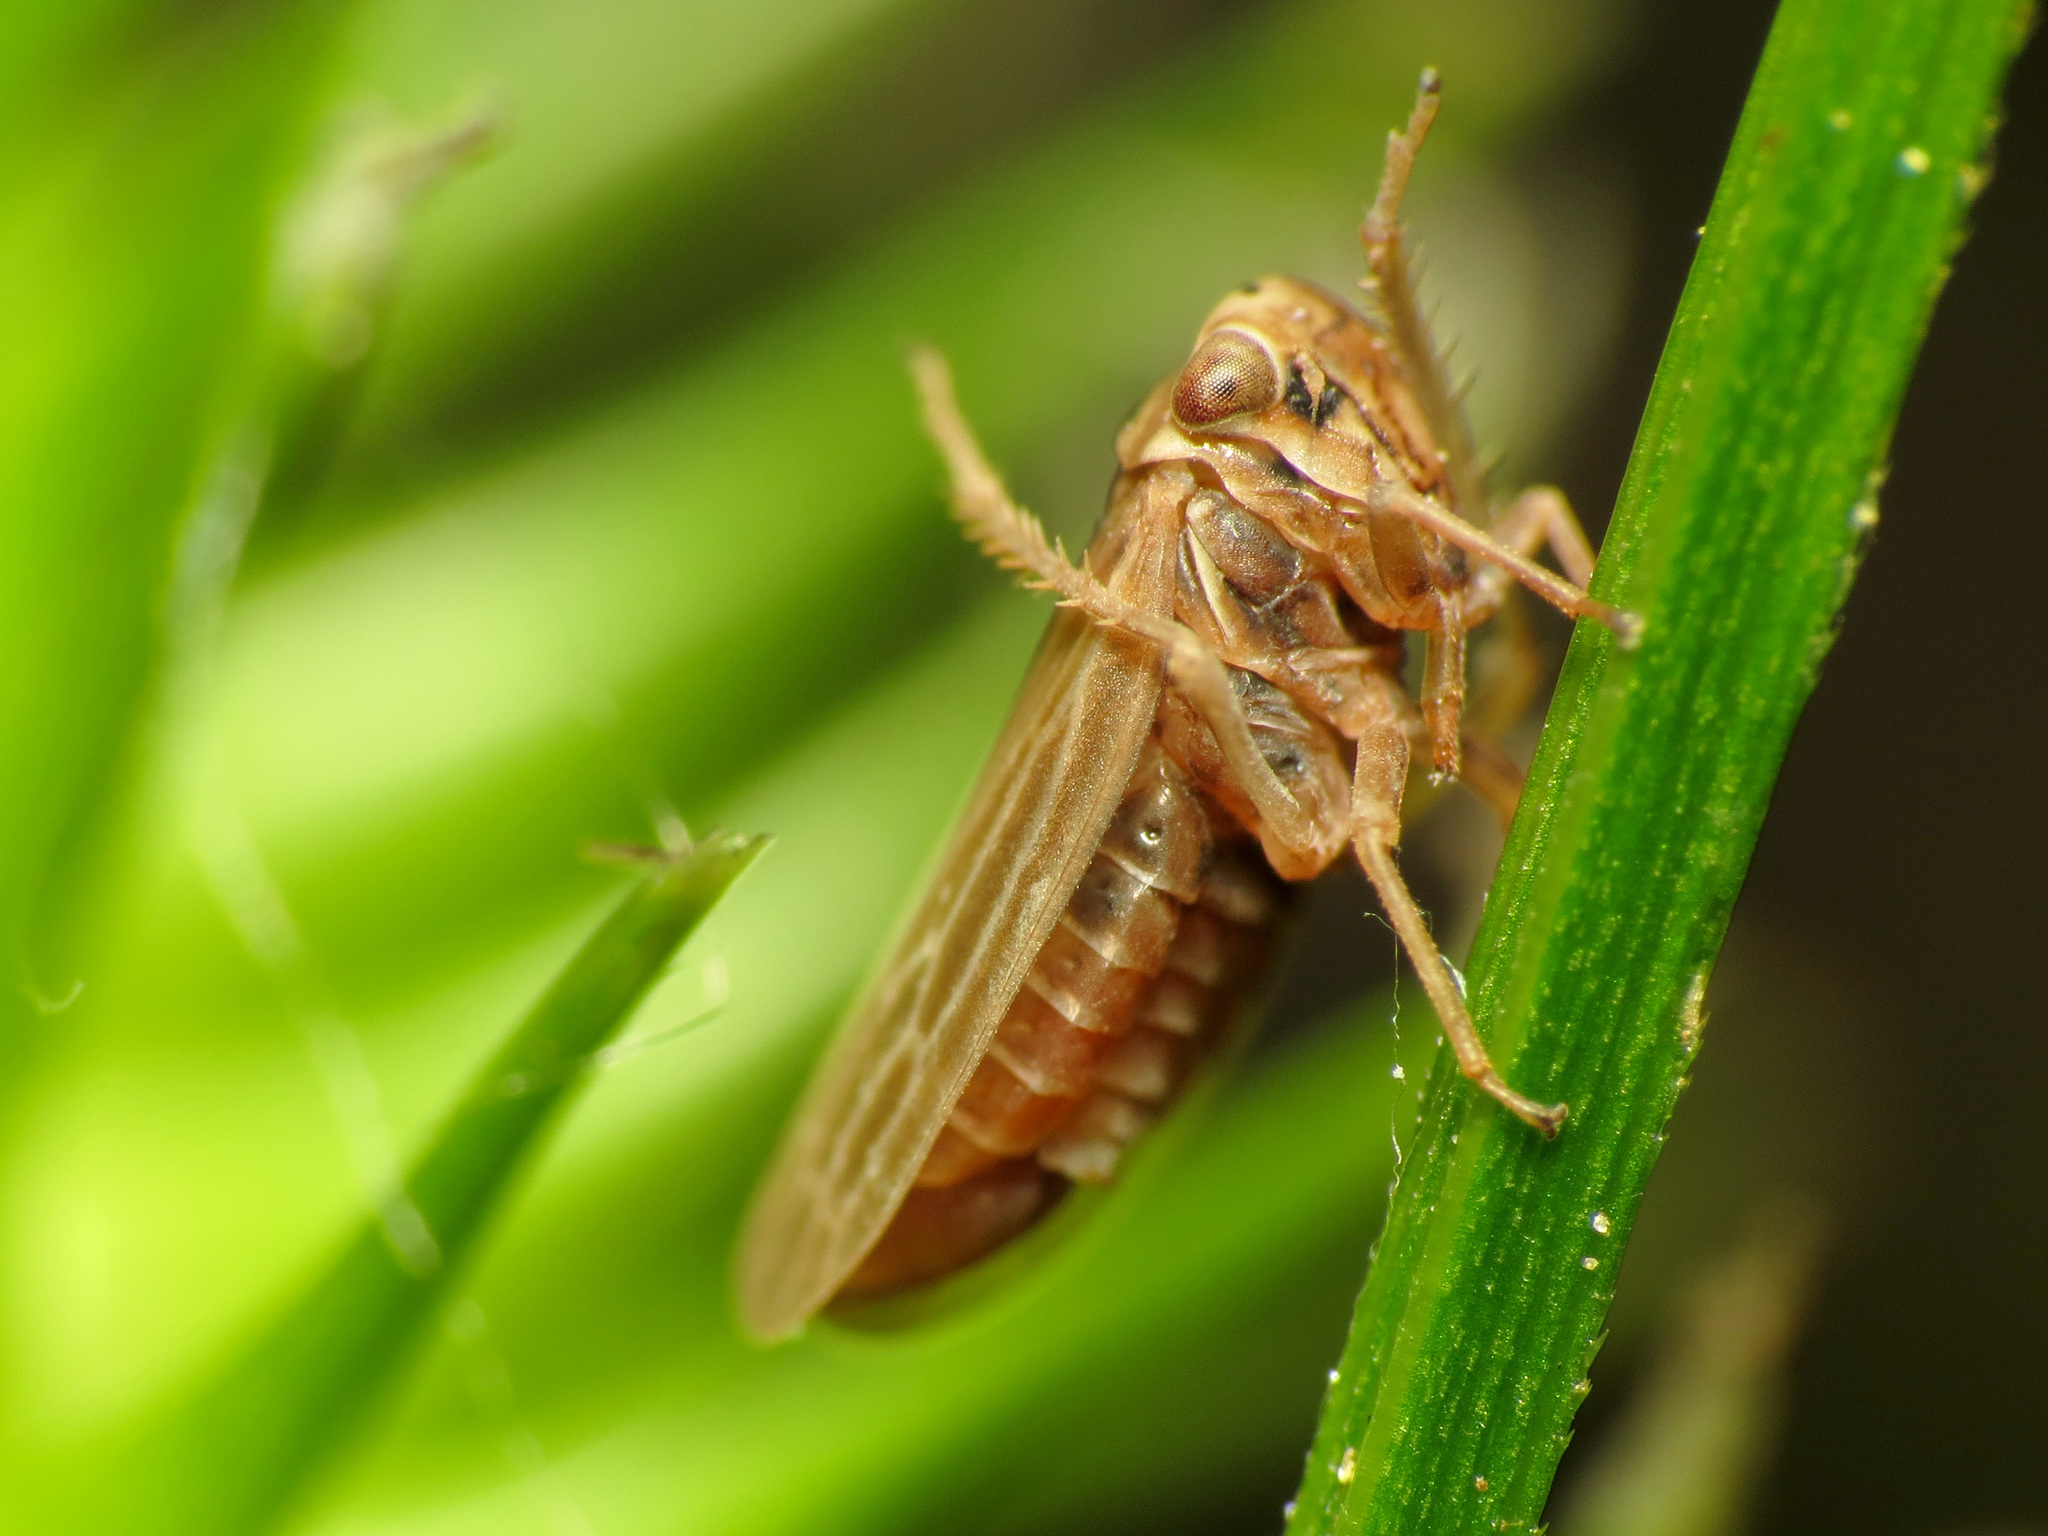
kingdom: Animalia
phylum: Arthropoda
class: Insecta
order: Hemiptera
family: Cicadellidae
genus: Agalliota
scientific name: Agalliota quadripunctata
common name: The four-spotted clover leafhopper
